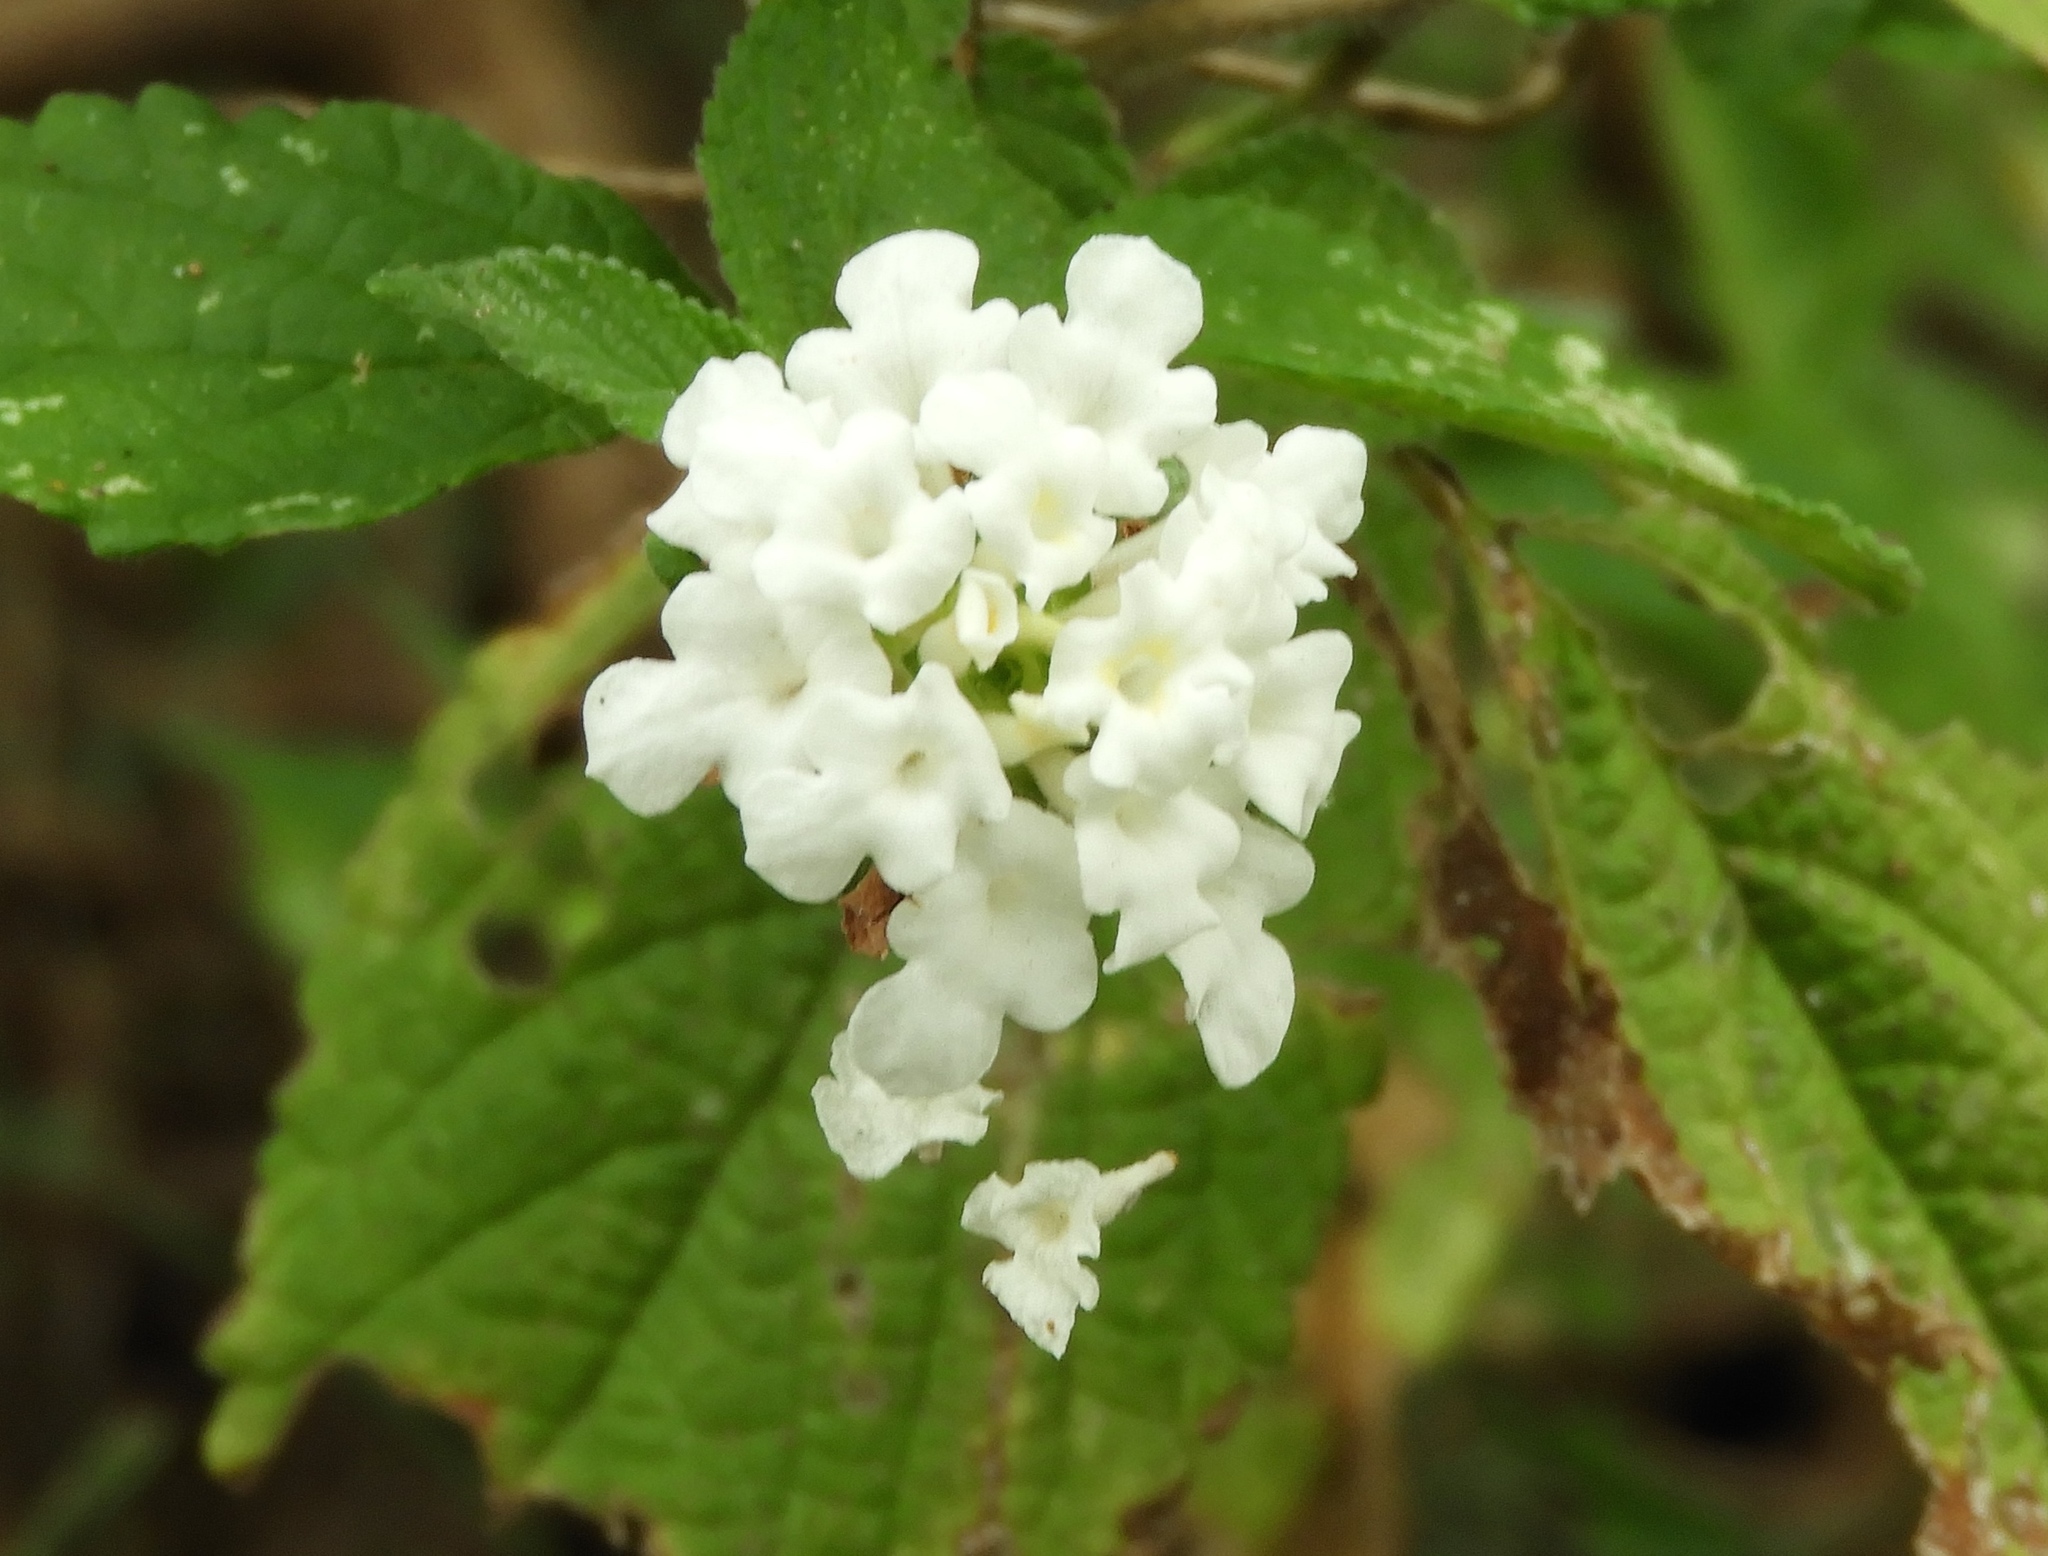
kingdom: Plantae
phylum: Tracheophyta
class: Magnoliopsida
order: Lamiales
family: Verbenaceae
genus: Lantana
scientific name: Lantana velutina
